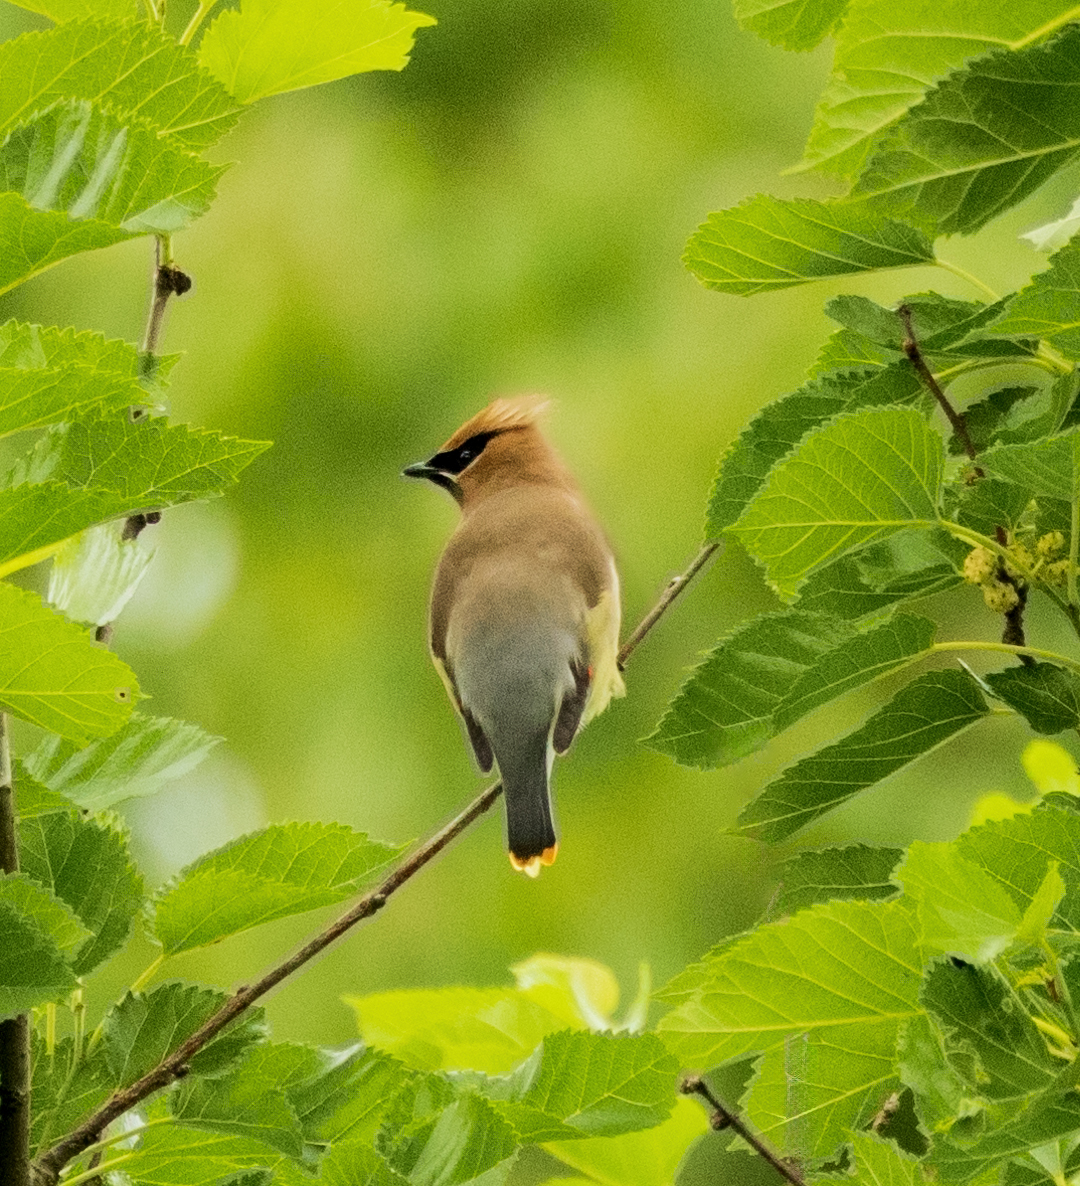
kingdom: Animalia
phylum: Chordata
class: Aves
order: Passeriformes
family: Bombycillidae
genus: Bombycilla
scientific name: Bombycilla cedrorum
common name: Cedar waxwing
